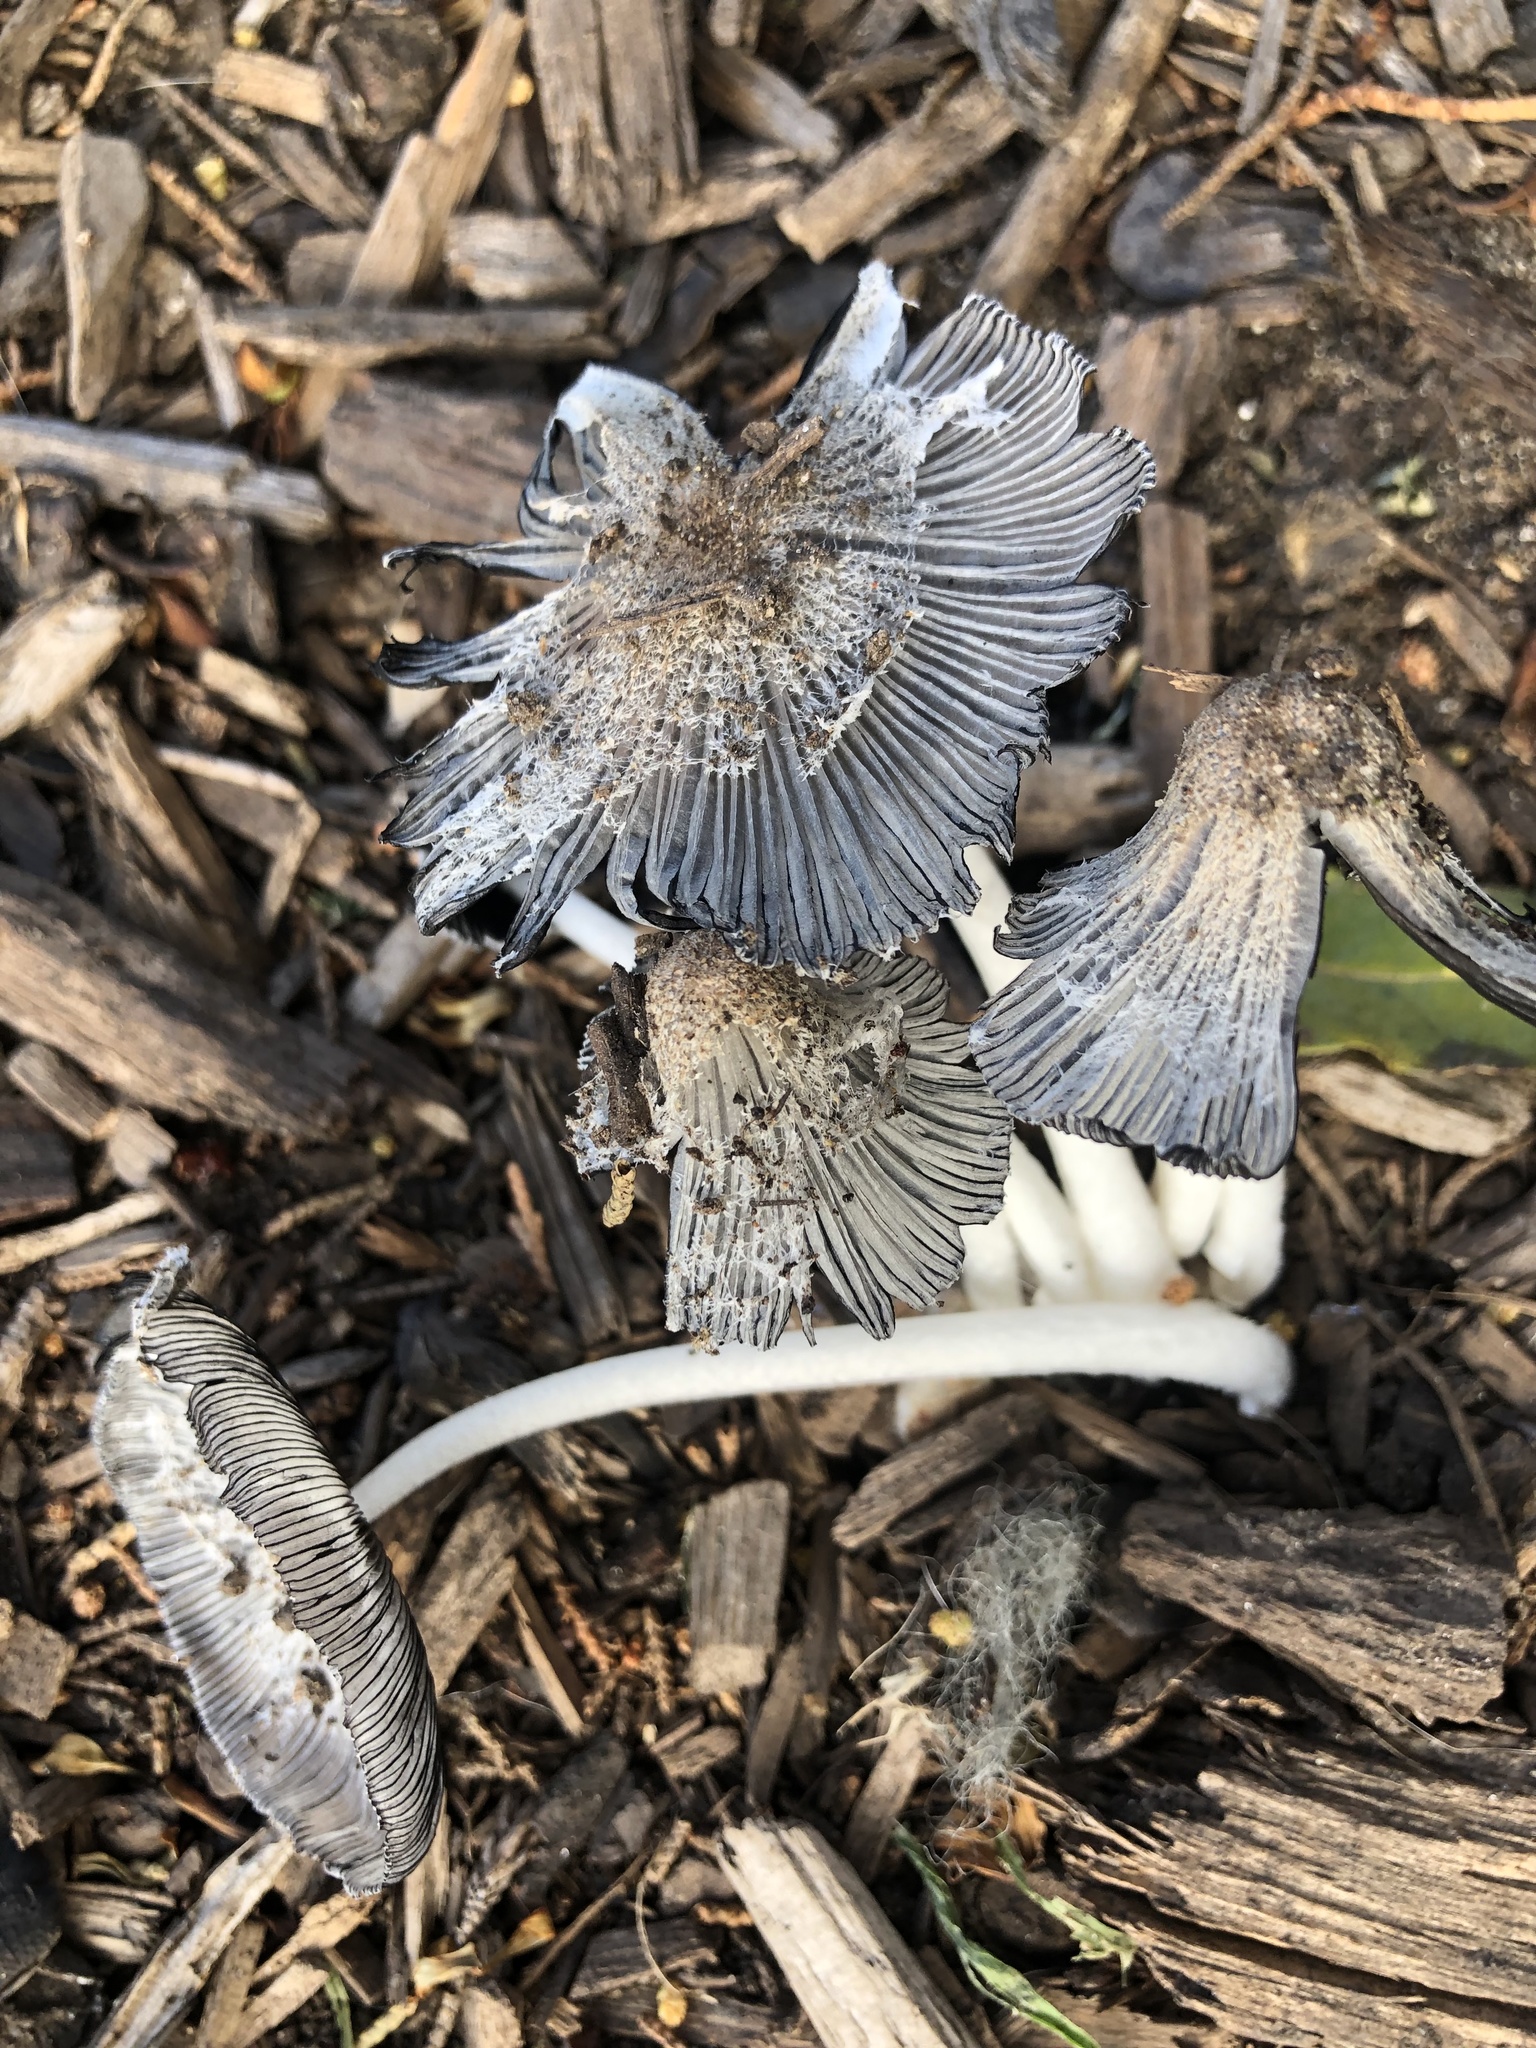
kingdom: Fungi
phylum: Basidiomycota
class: Agaricomycetes
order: Agaricales
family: Psathyrellaceae
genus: Coprinopsis
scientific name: Coprinopsis lagopus
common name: Hare'sfoot inkcap
